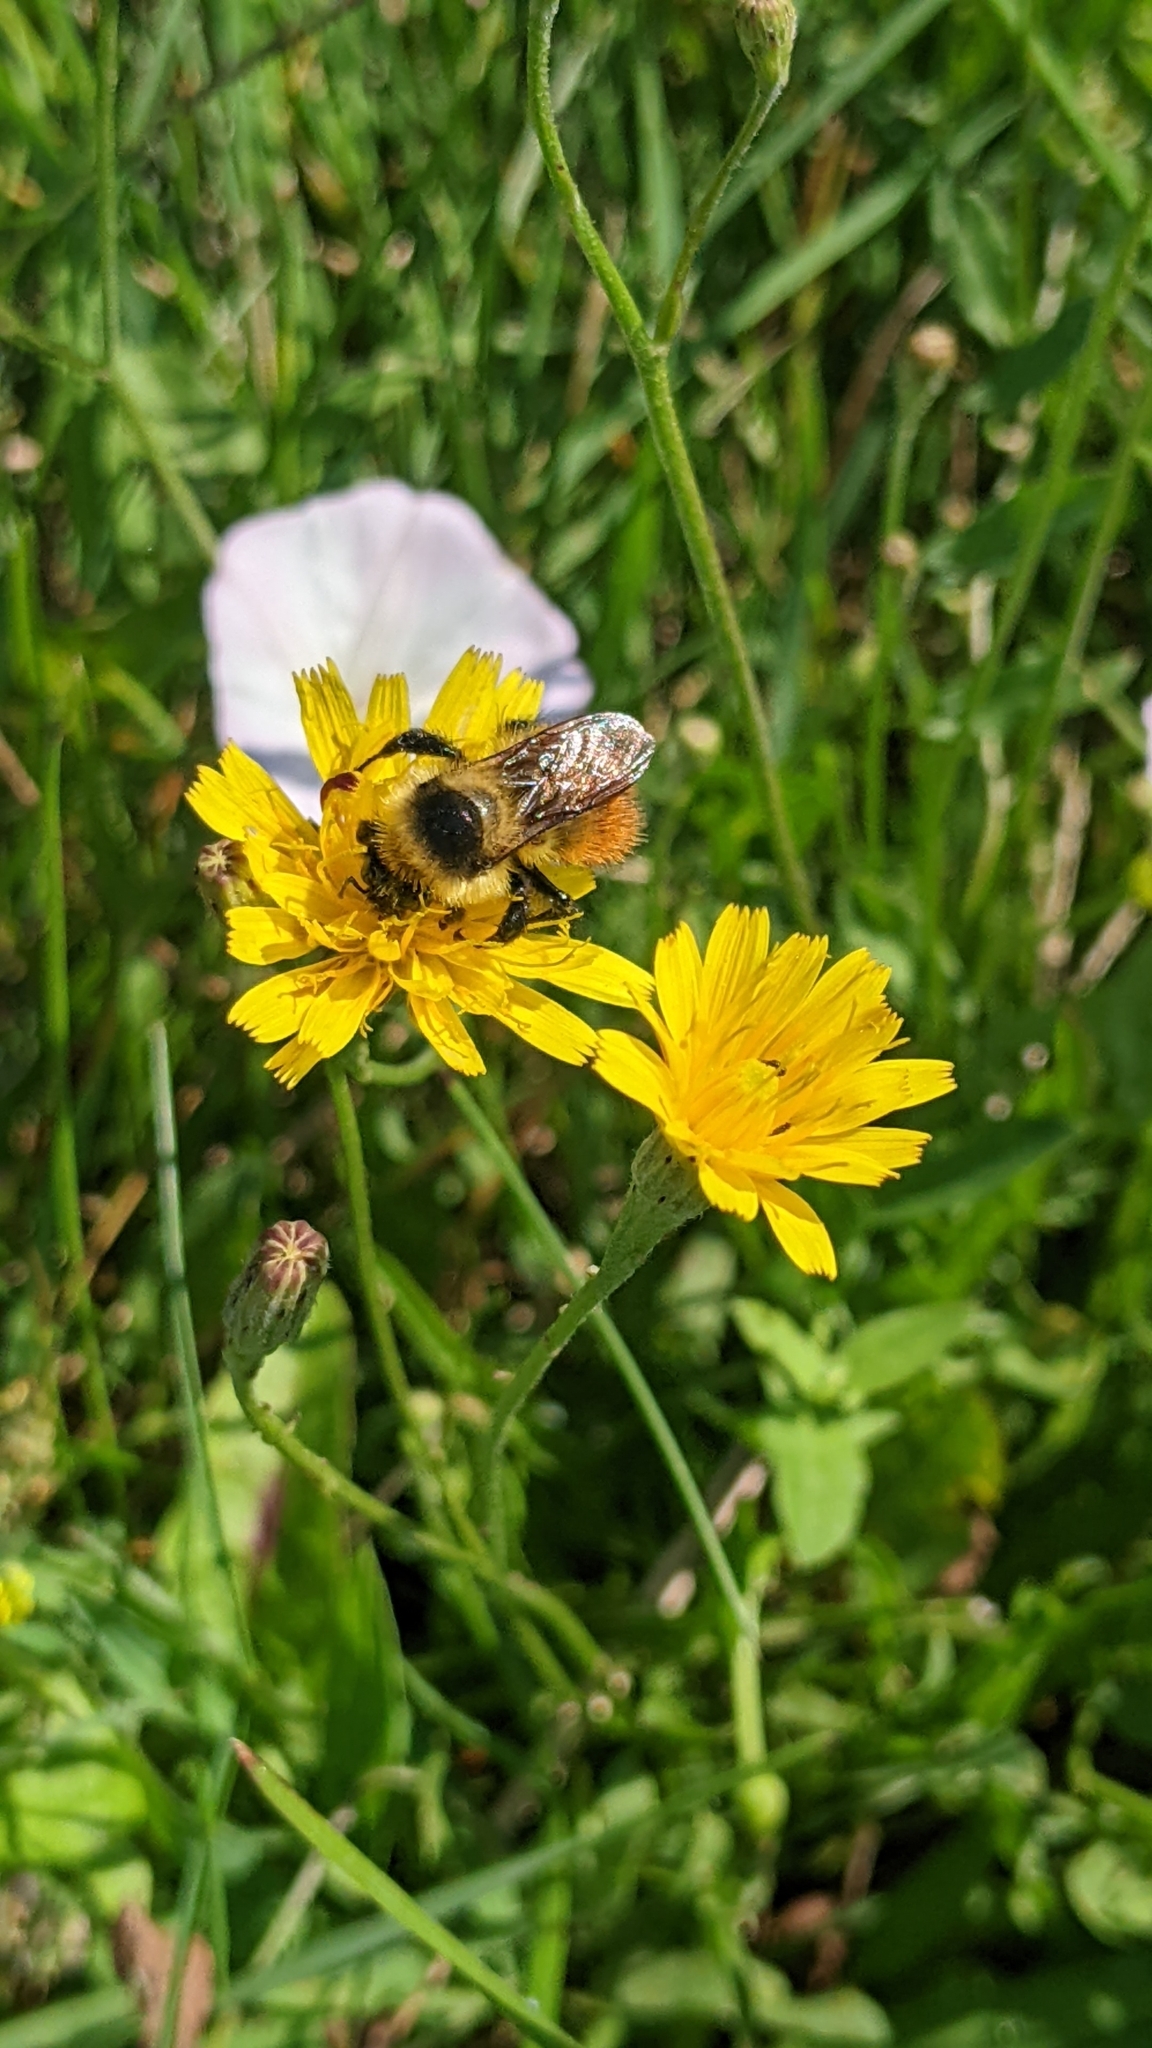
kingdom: Animalia
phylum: Arthropoda
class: Insecta
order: Hymenoptera
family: Apidae
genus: Bombus
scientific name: Bombus rufocinctus
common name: Red-belted bumble bee
